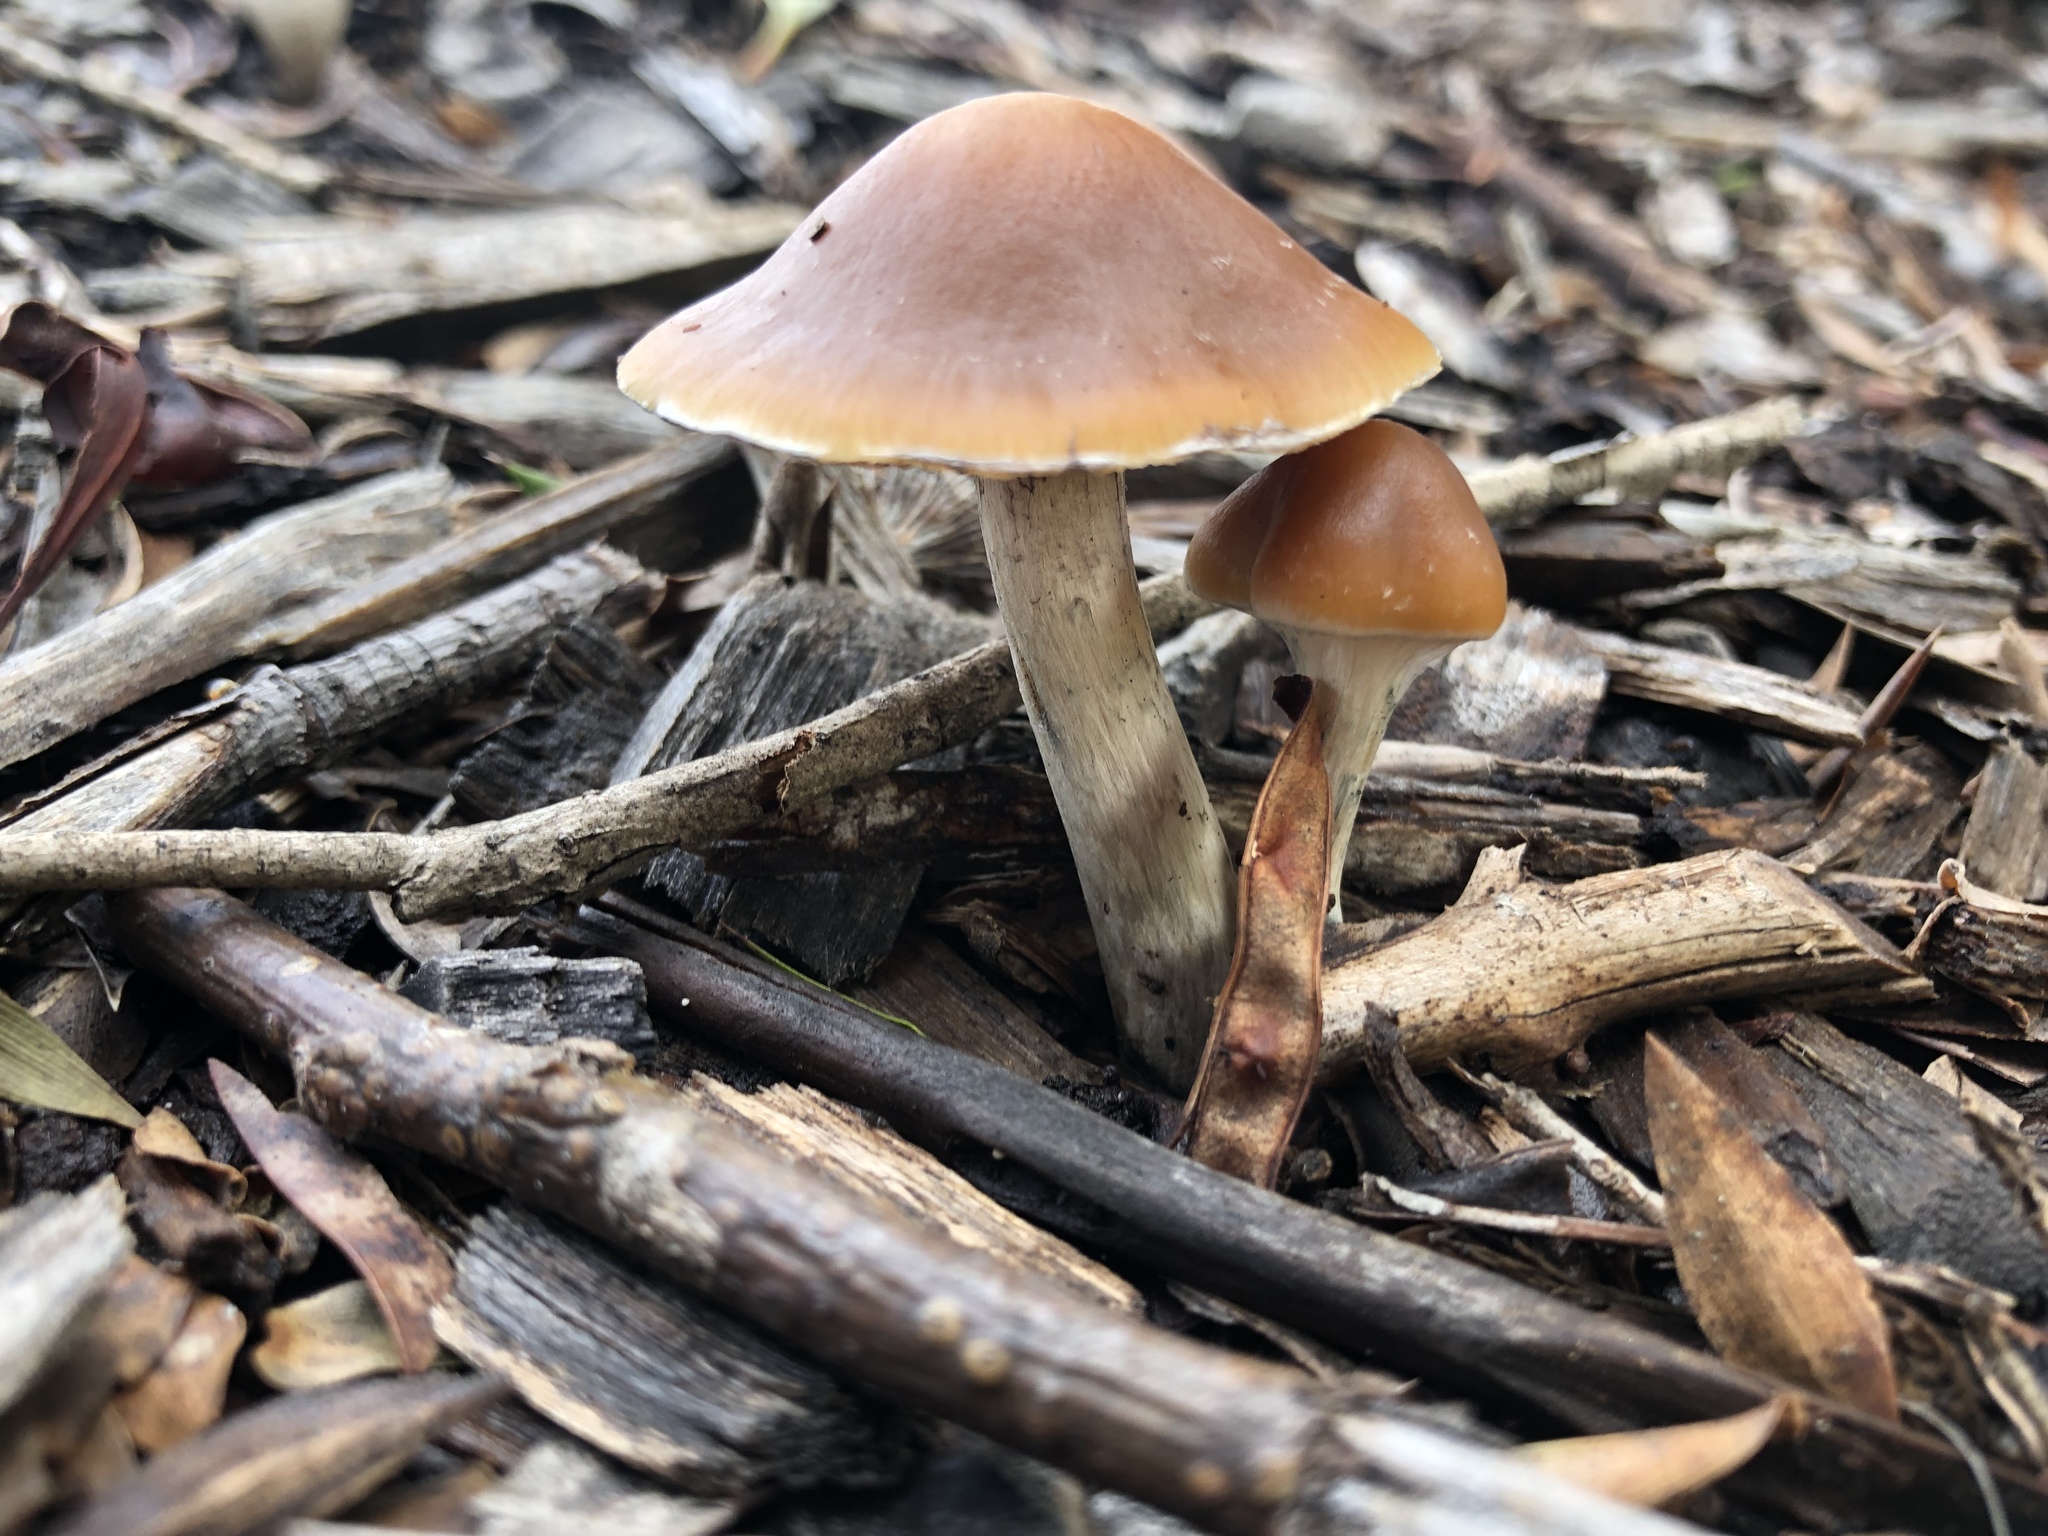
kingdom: Fungi
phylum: Basidiomycota
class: Agaricomycetes
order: Agaricales
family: Hymenogastraceae
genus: Psilocybe
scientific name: Psilocybe subaeruginosa
